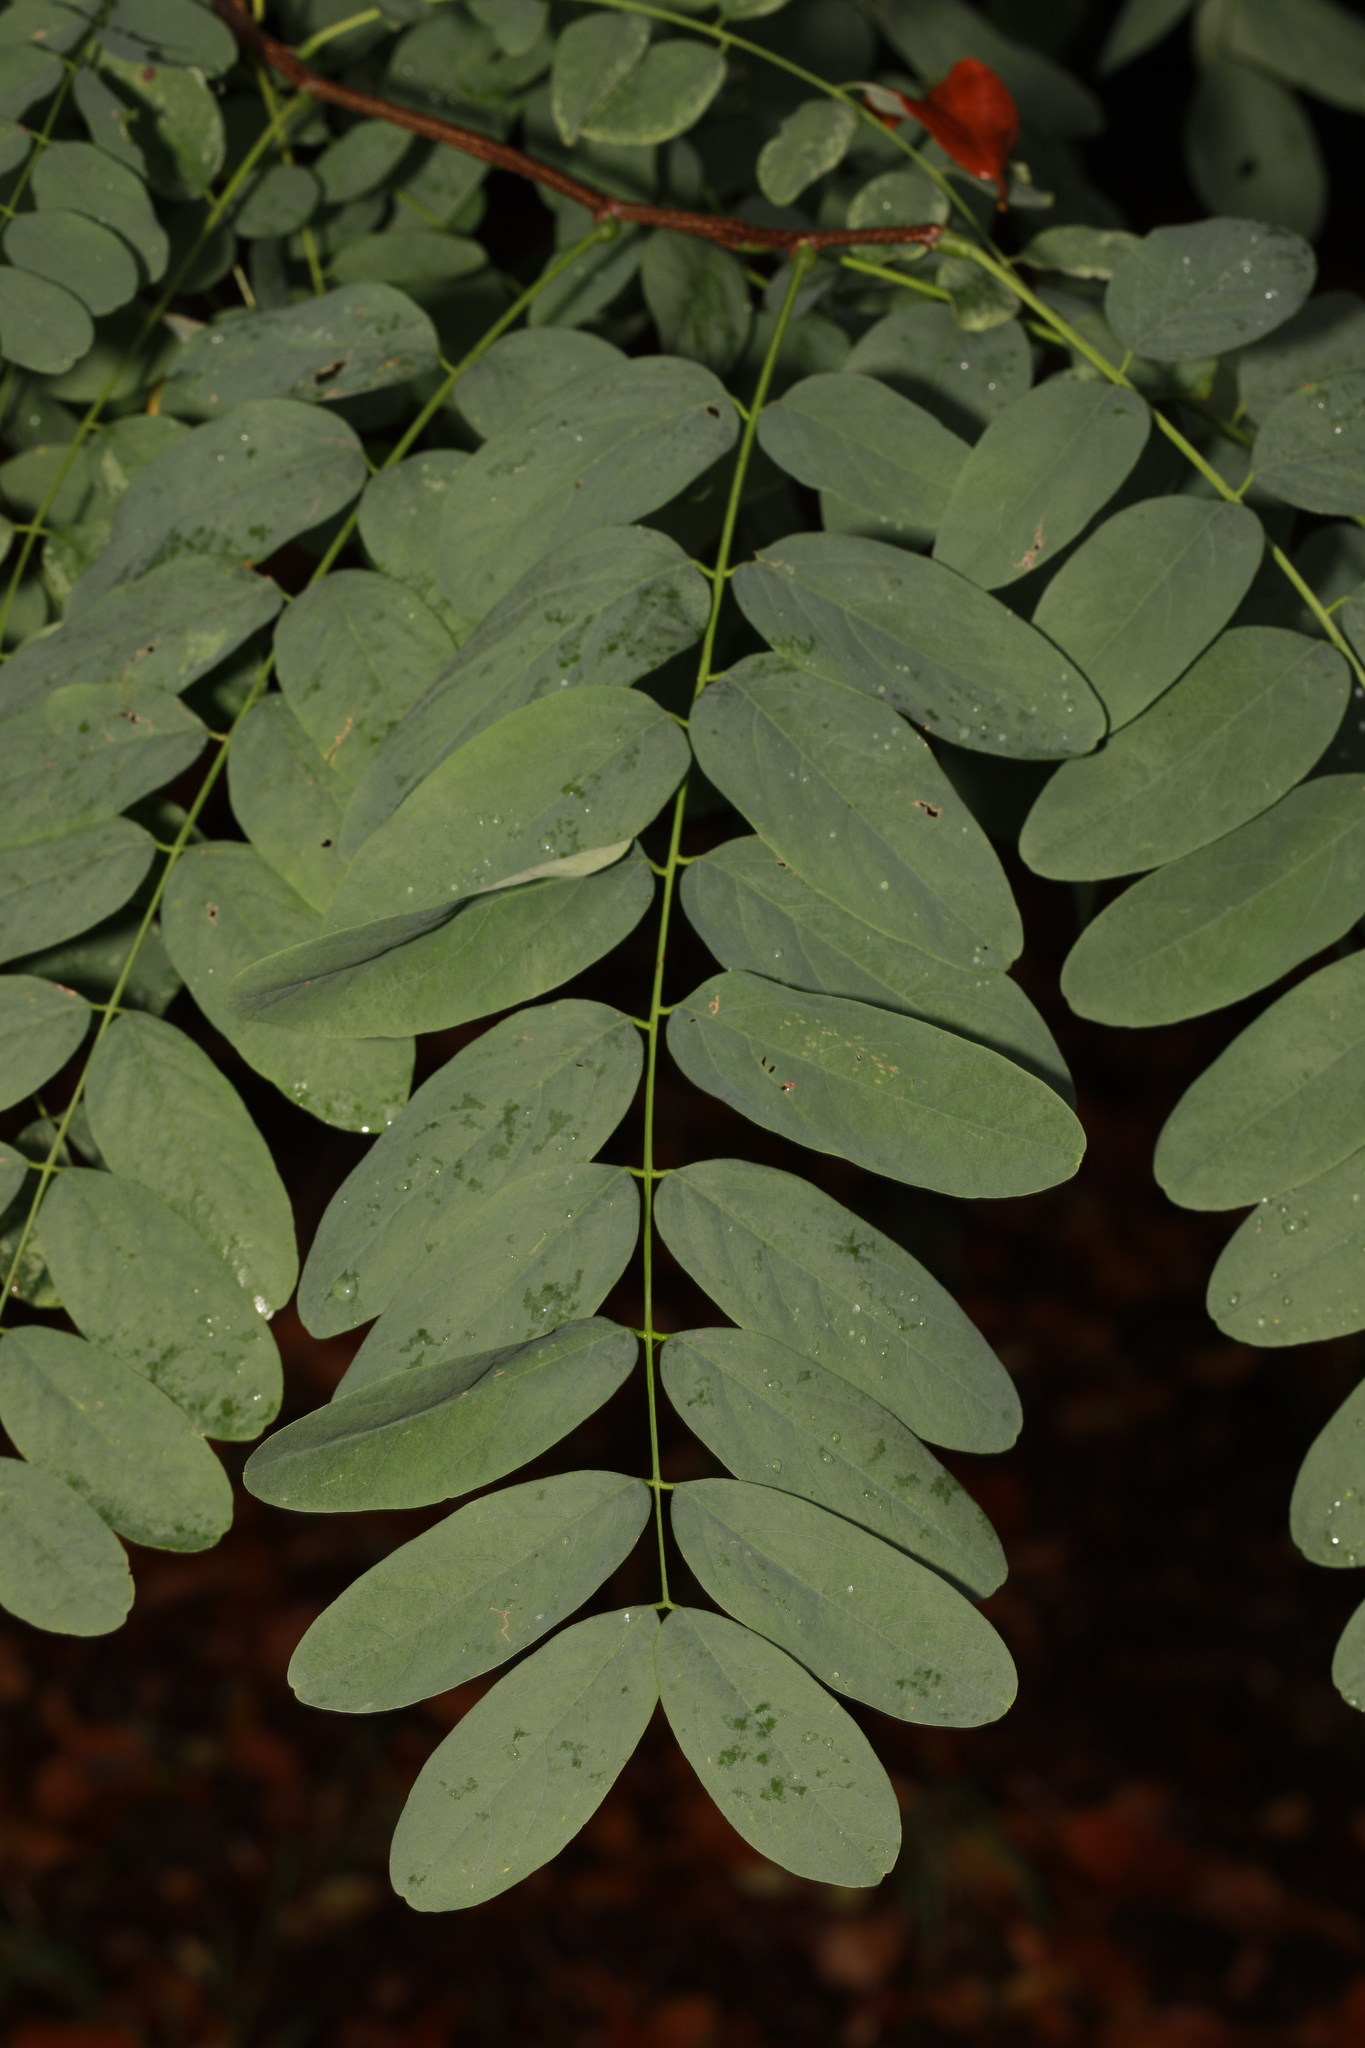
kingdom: Plantae
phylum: Tracheophyta
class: Magnoliopsida
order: Fabales
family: Fabaceae
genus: Robinia
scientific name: Robinia pseudoacacia
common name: Black locust
